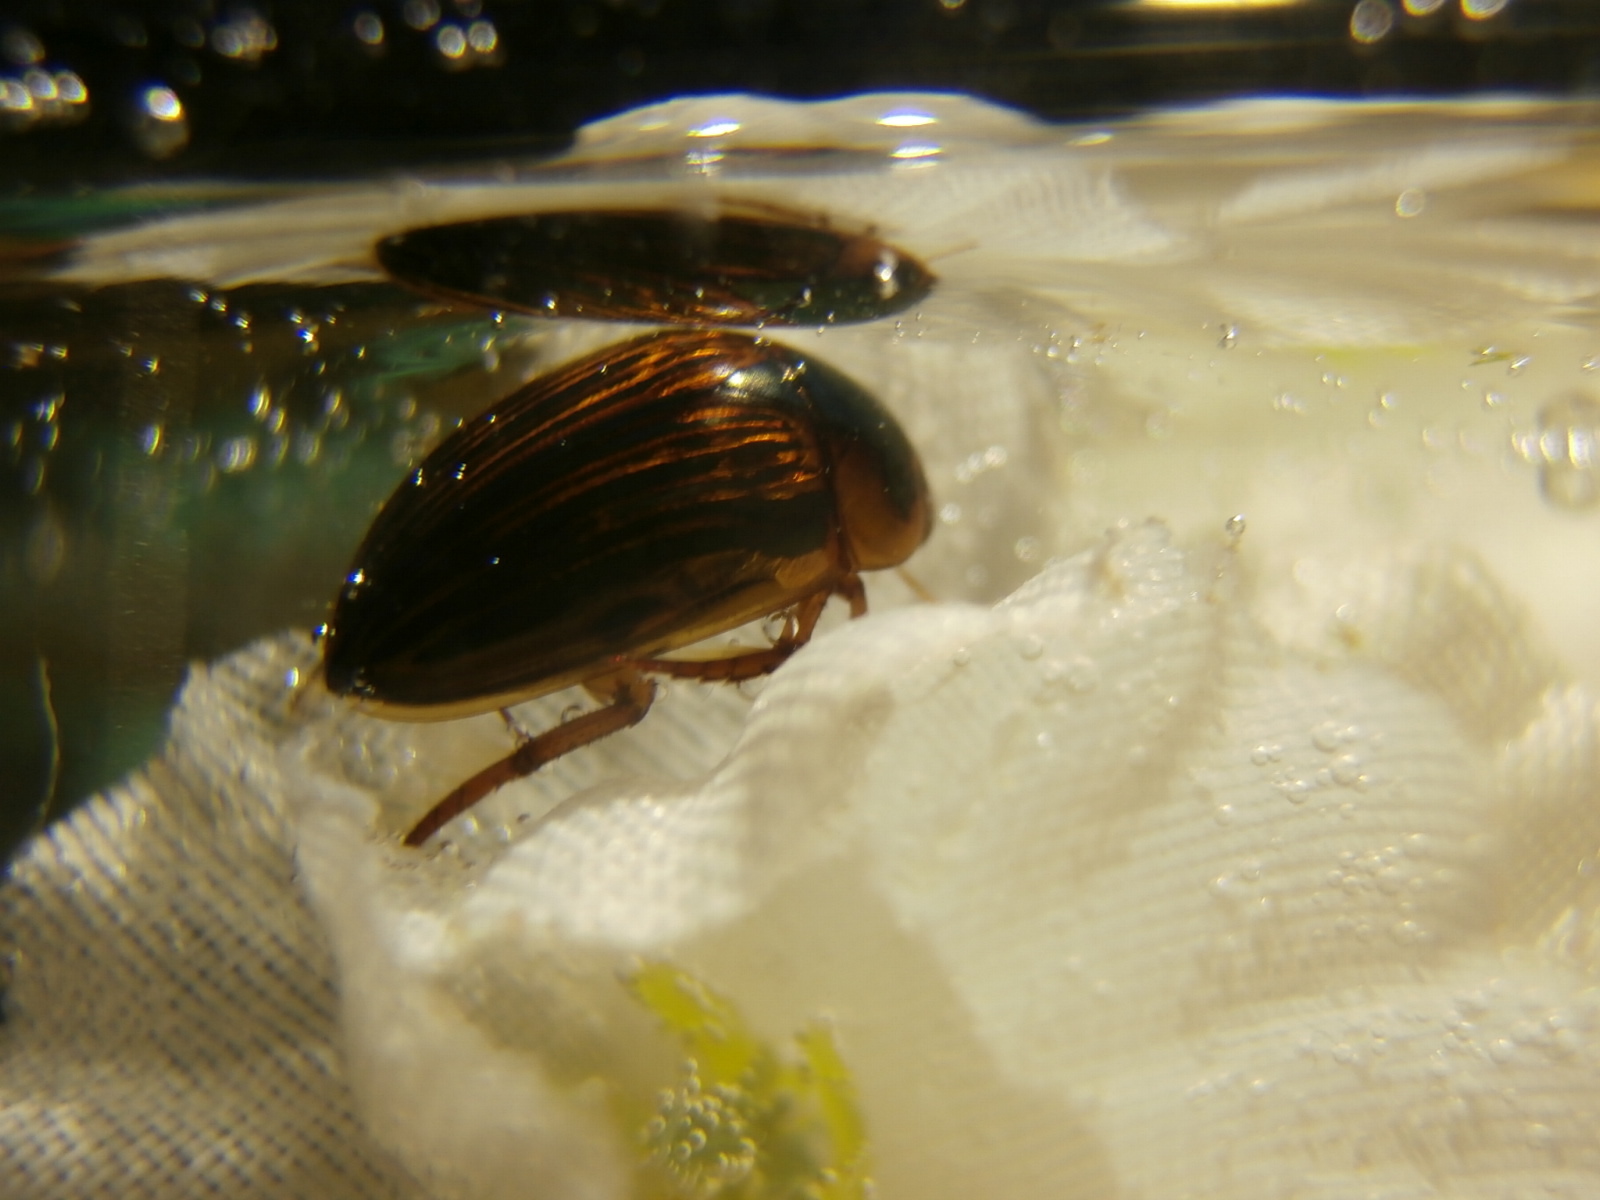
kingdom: Animalia
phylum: Arthropoda
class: Insecta
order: Coleoptera
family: Hydrophilidae
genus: Tropisternus
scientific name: Tropisternus collaris
